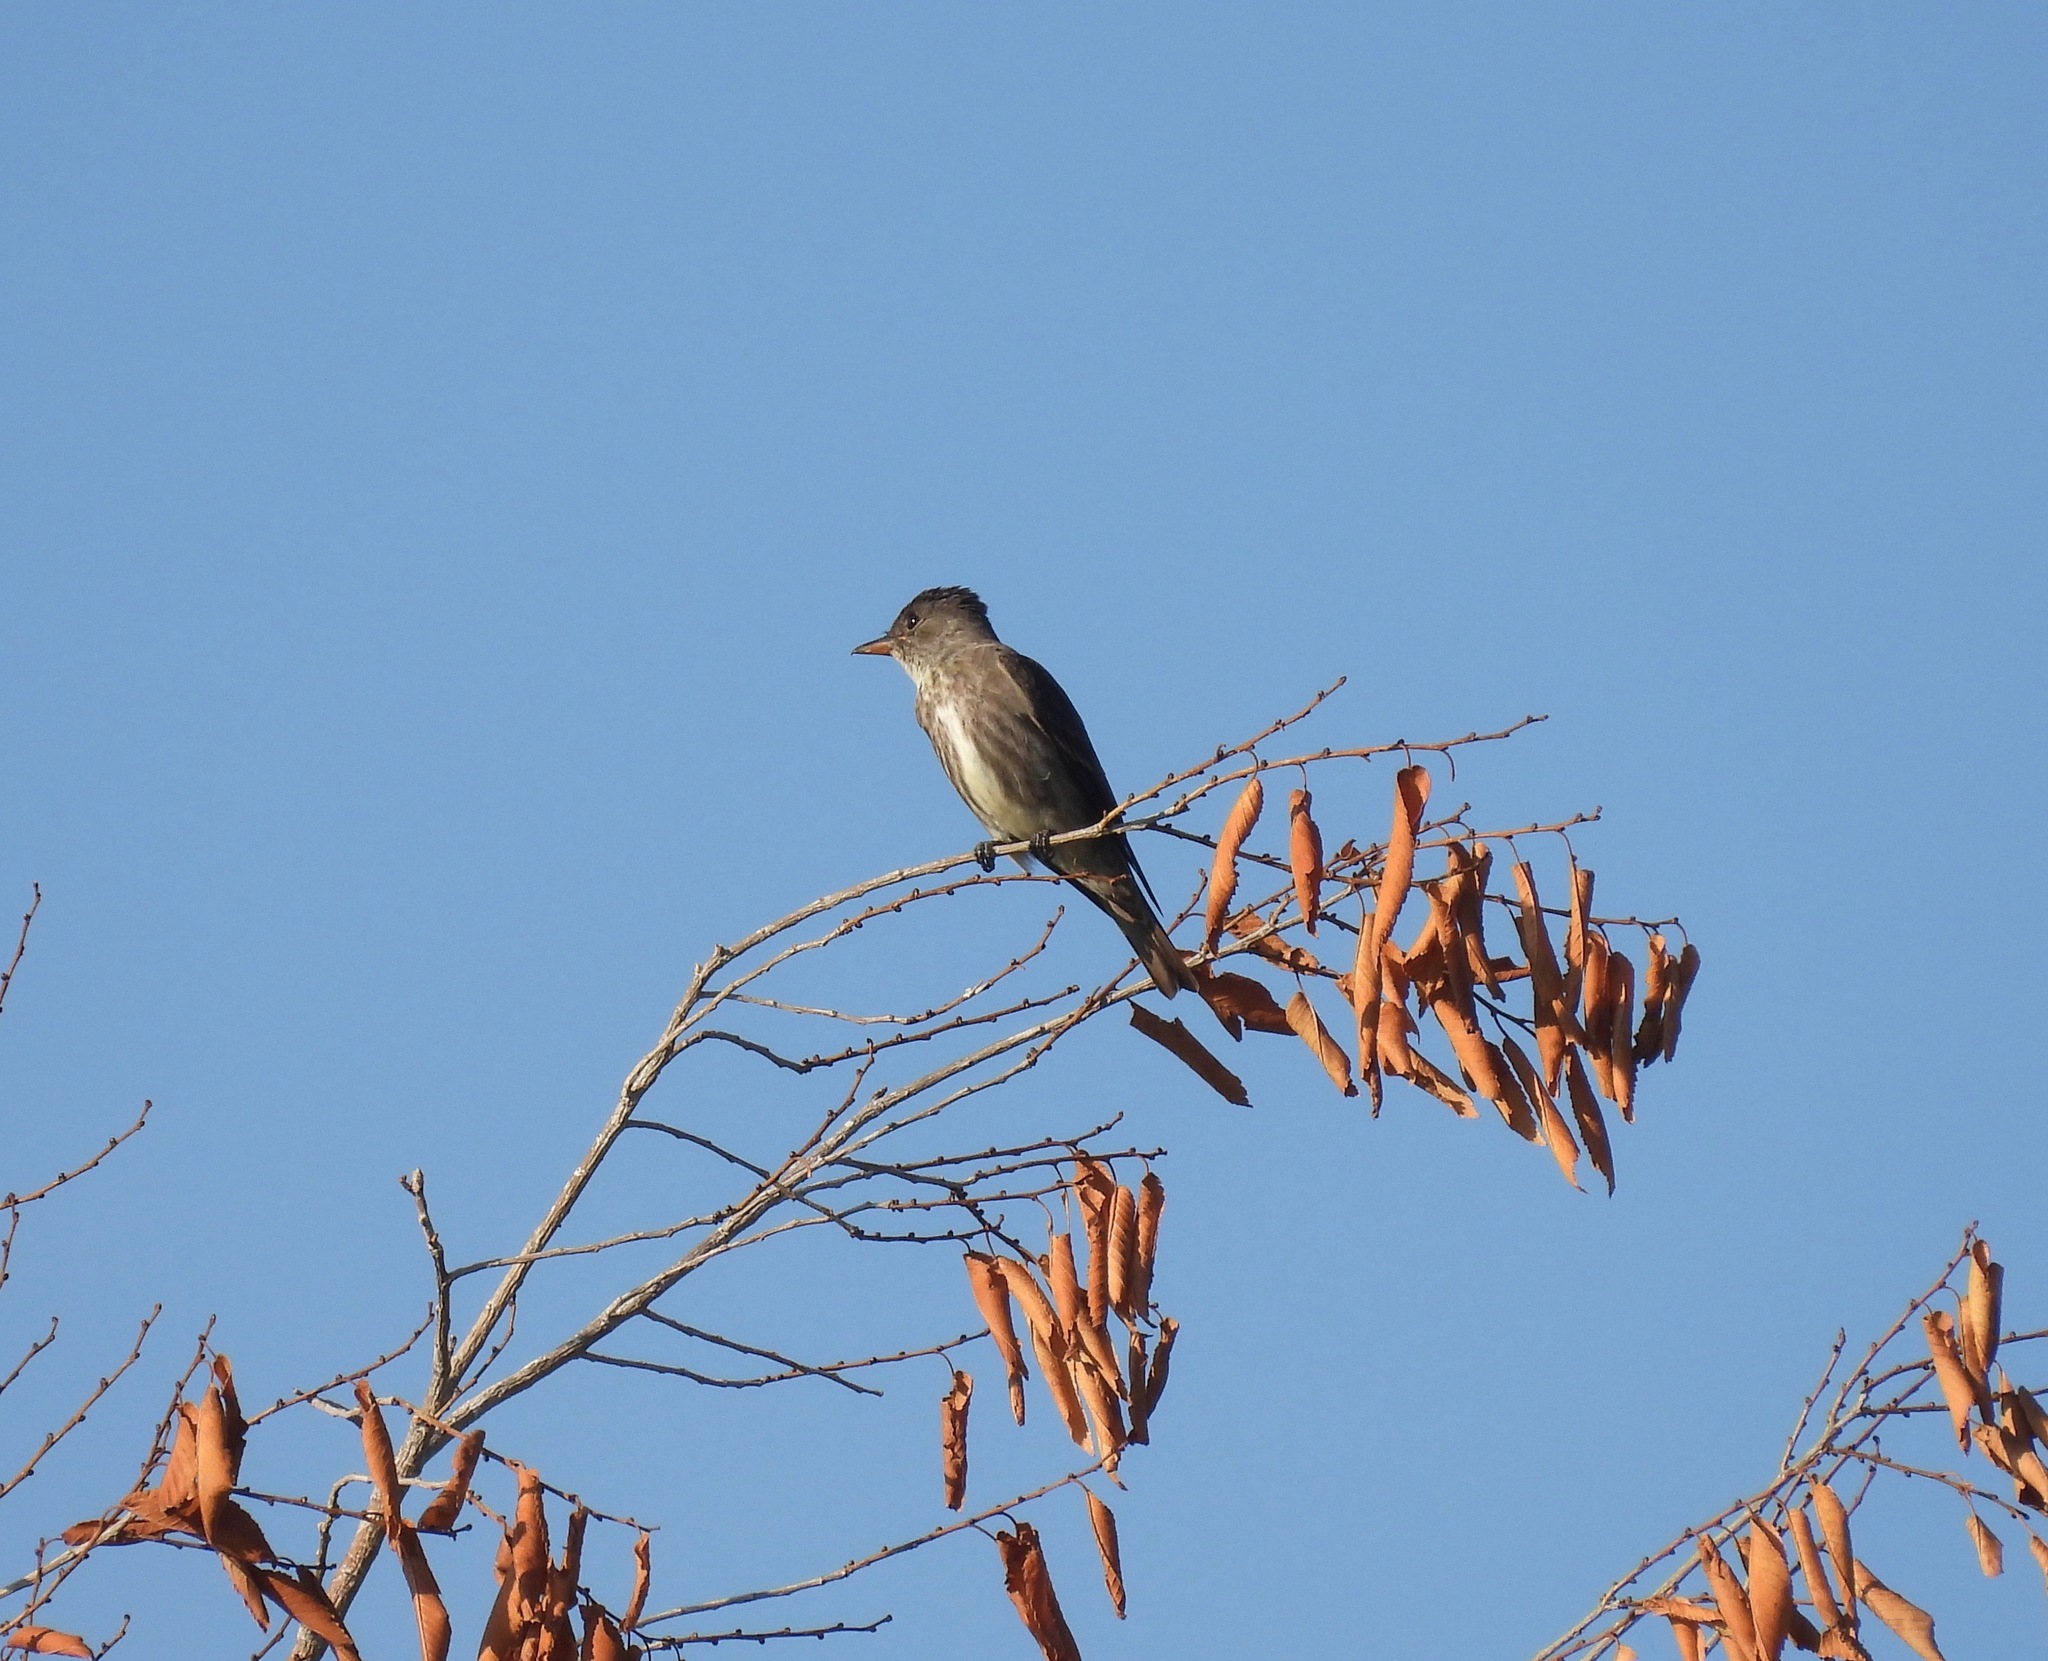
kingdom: Animalia
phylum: Chordata
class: Aves
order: Passeriformes
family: Tyrannidae
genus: Contopus
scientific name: Contopus cooperi
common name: Olive-sided flycatcher
